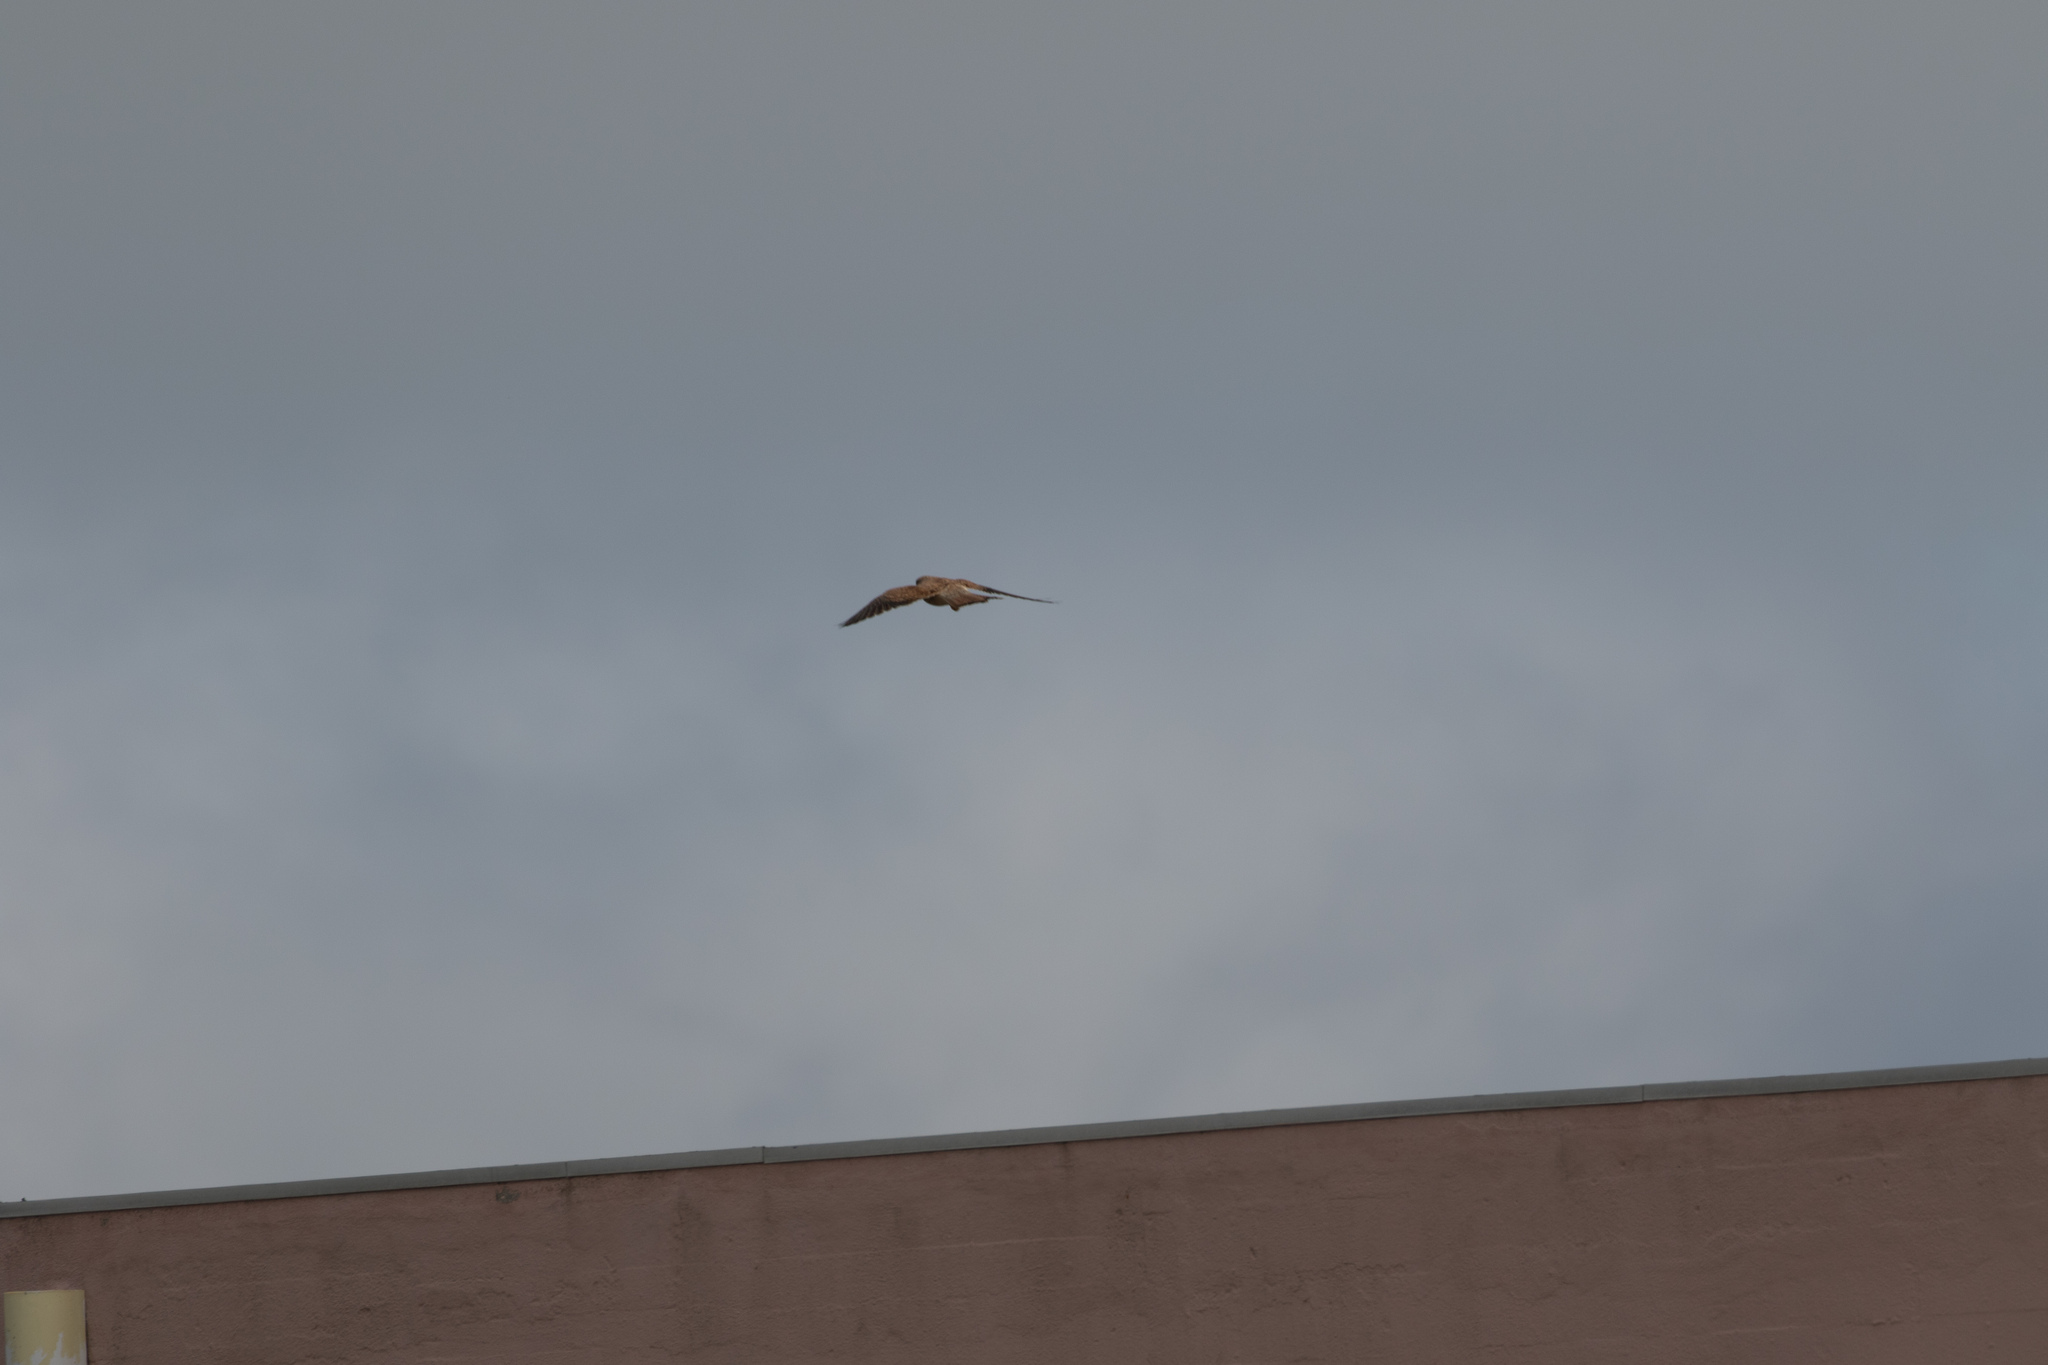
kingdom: Animalia
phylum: Chordata
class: Aves
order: Falconiformes
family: Falconidae
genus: Falco
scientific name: Falco tinnunculus
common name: Common kestrel
